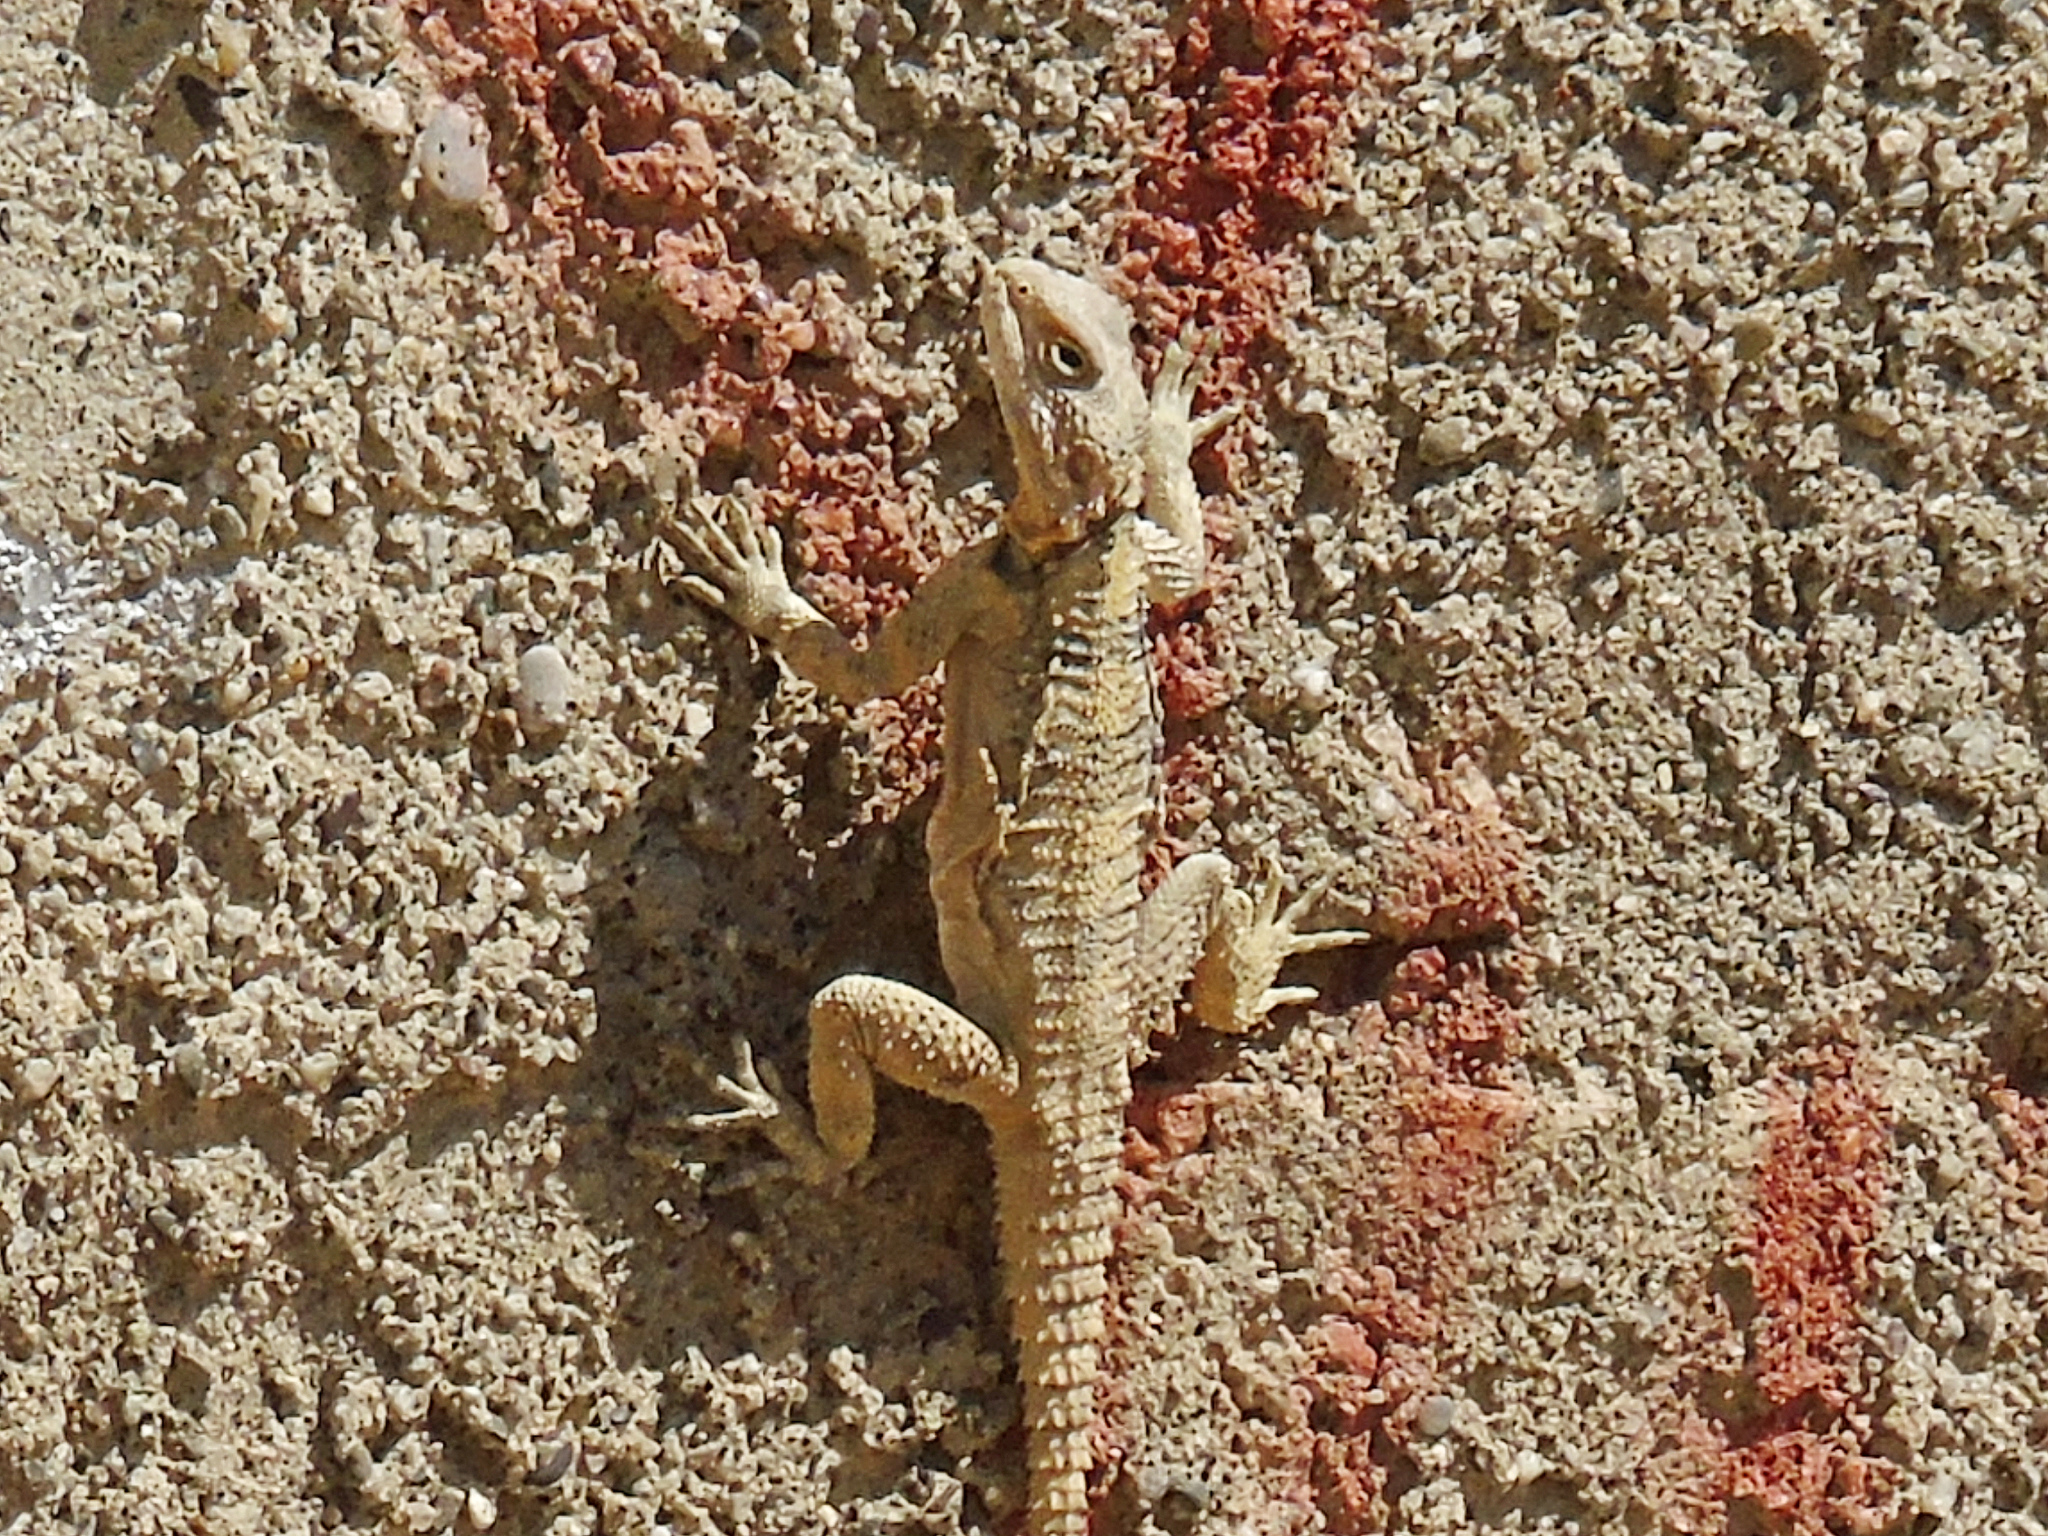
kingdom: Animalia
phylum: Chordata
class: Squamata
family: Agamidae
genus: Stellagama
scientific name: Stellagama stellio
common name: Starred agama
